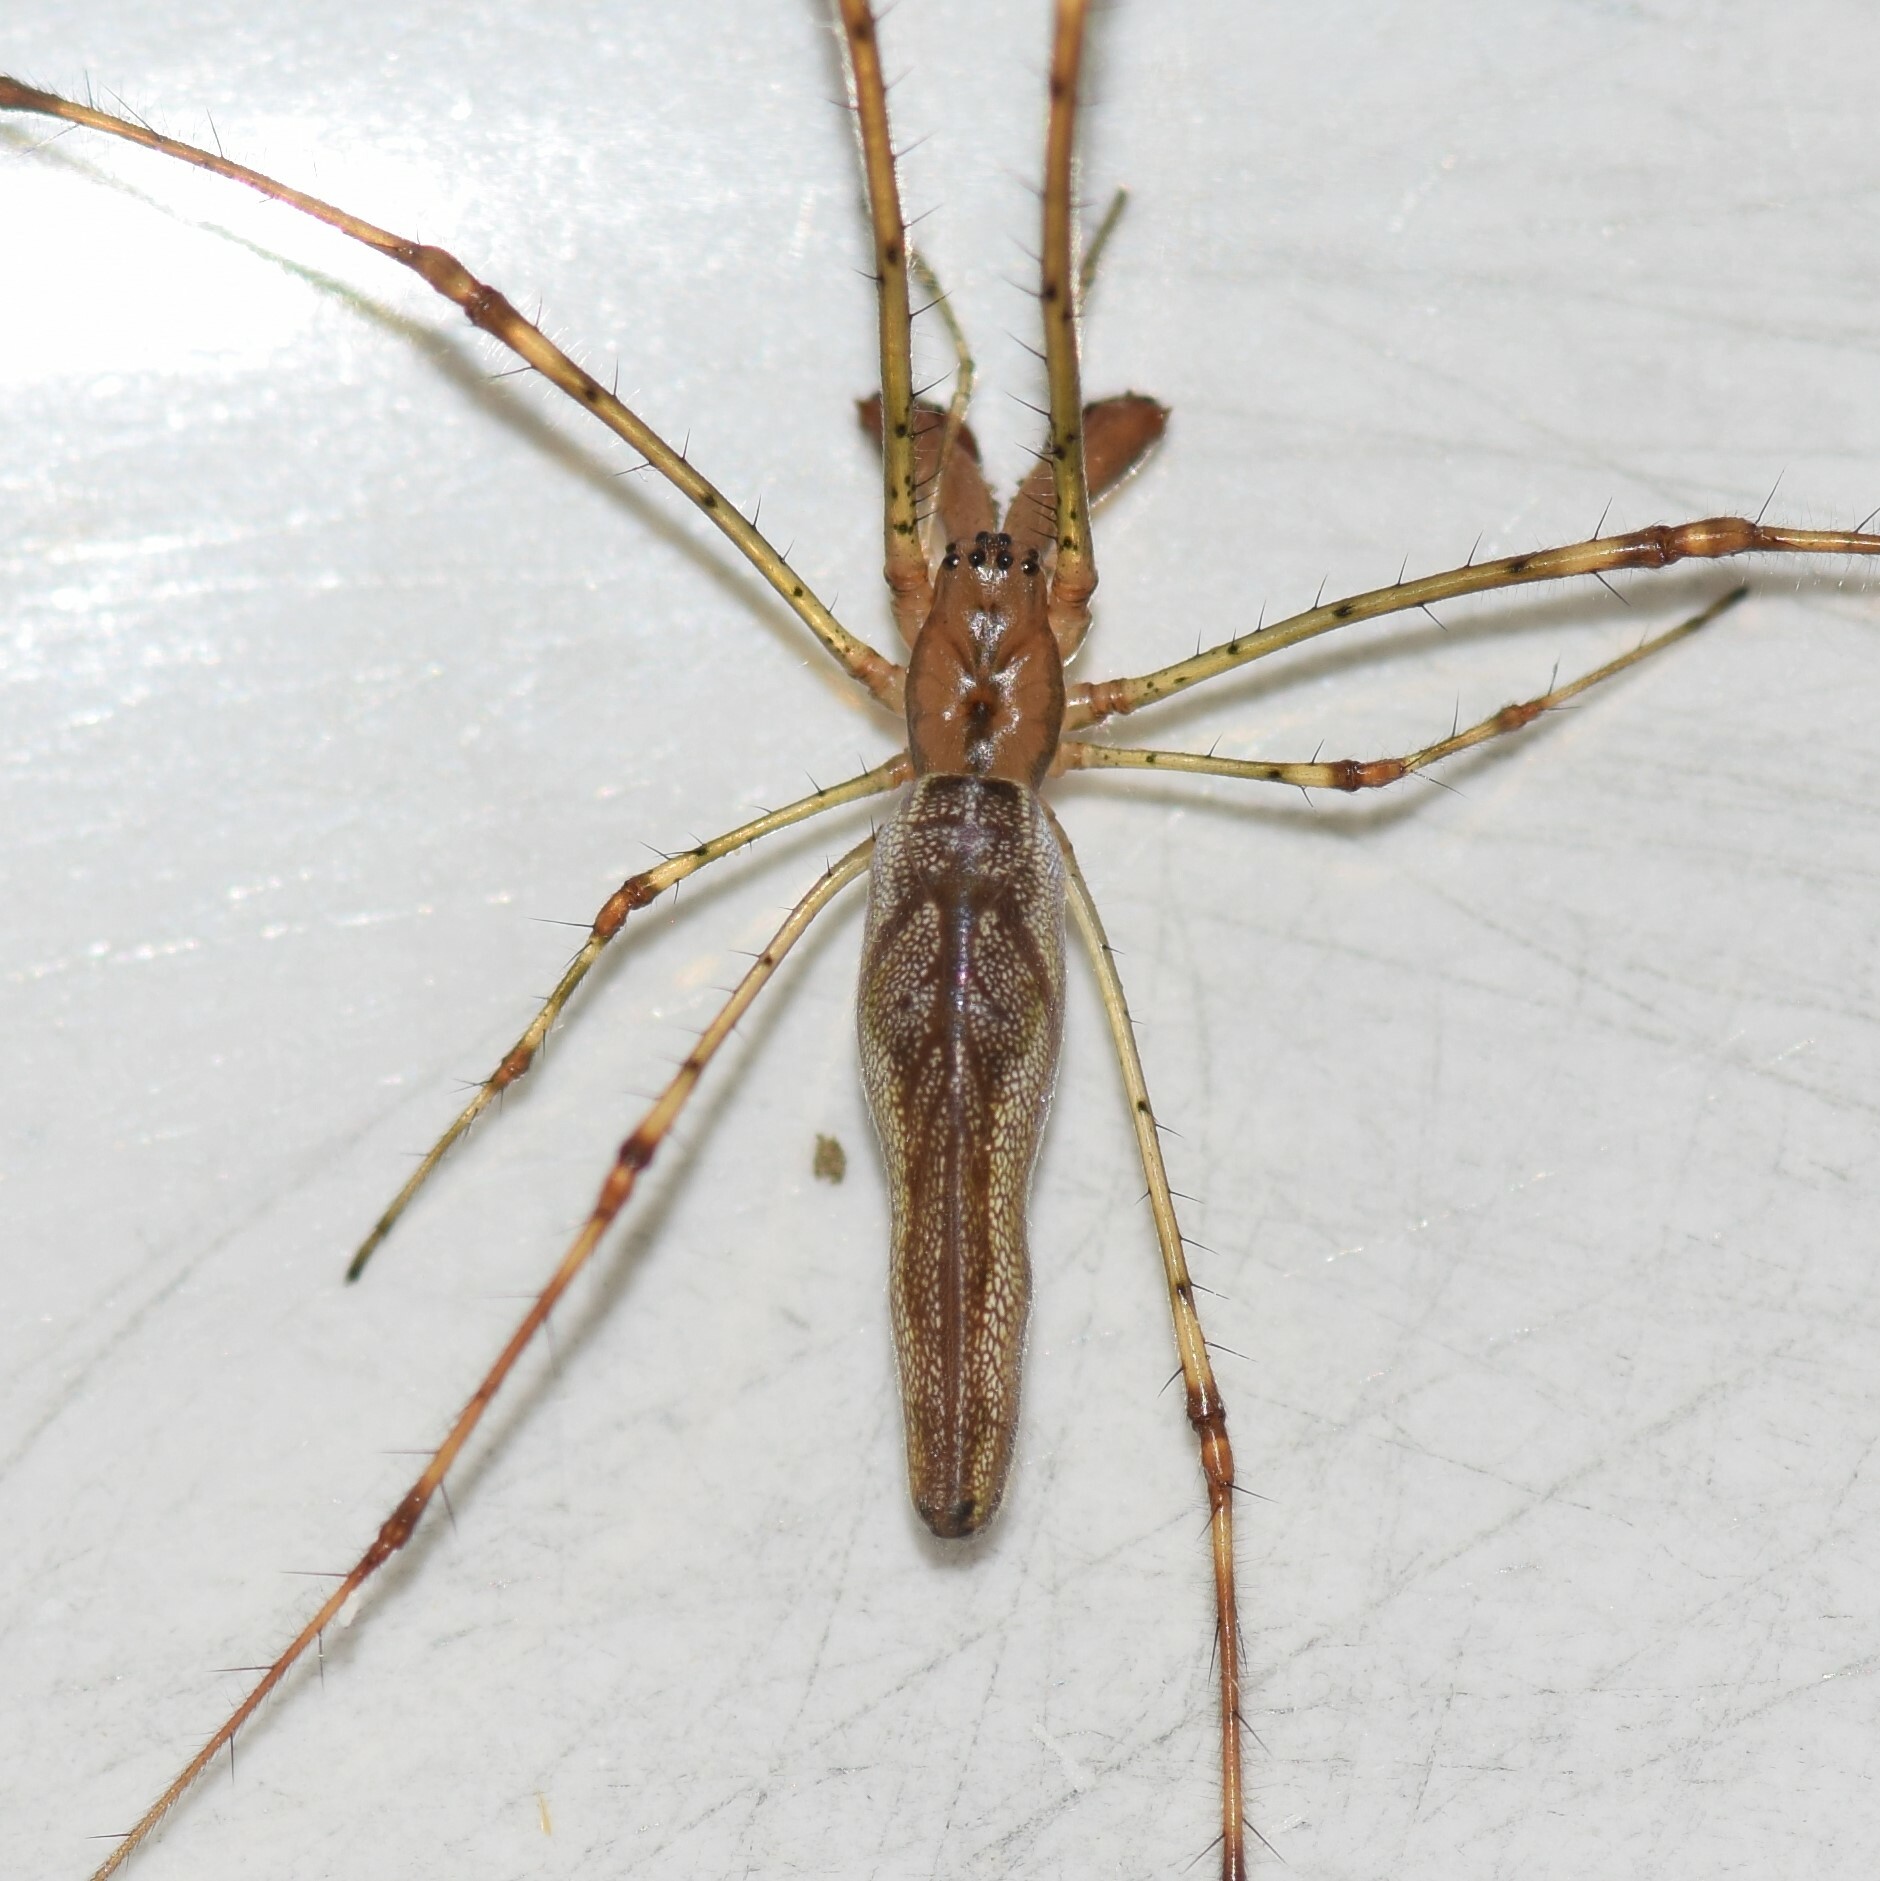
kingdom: Animalia
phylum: Arthropoda
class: Arachnida
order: Araneae
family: Tetragnathidae
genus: Tetragnatha
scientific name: Tetragnatha elongata
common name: Longjawed orb weavers
